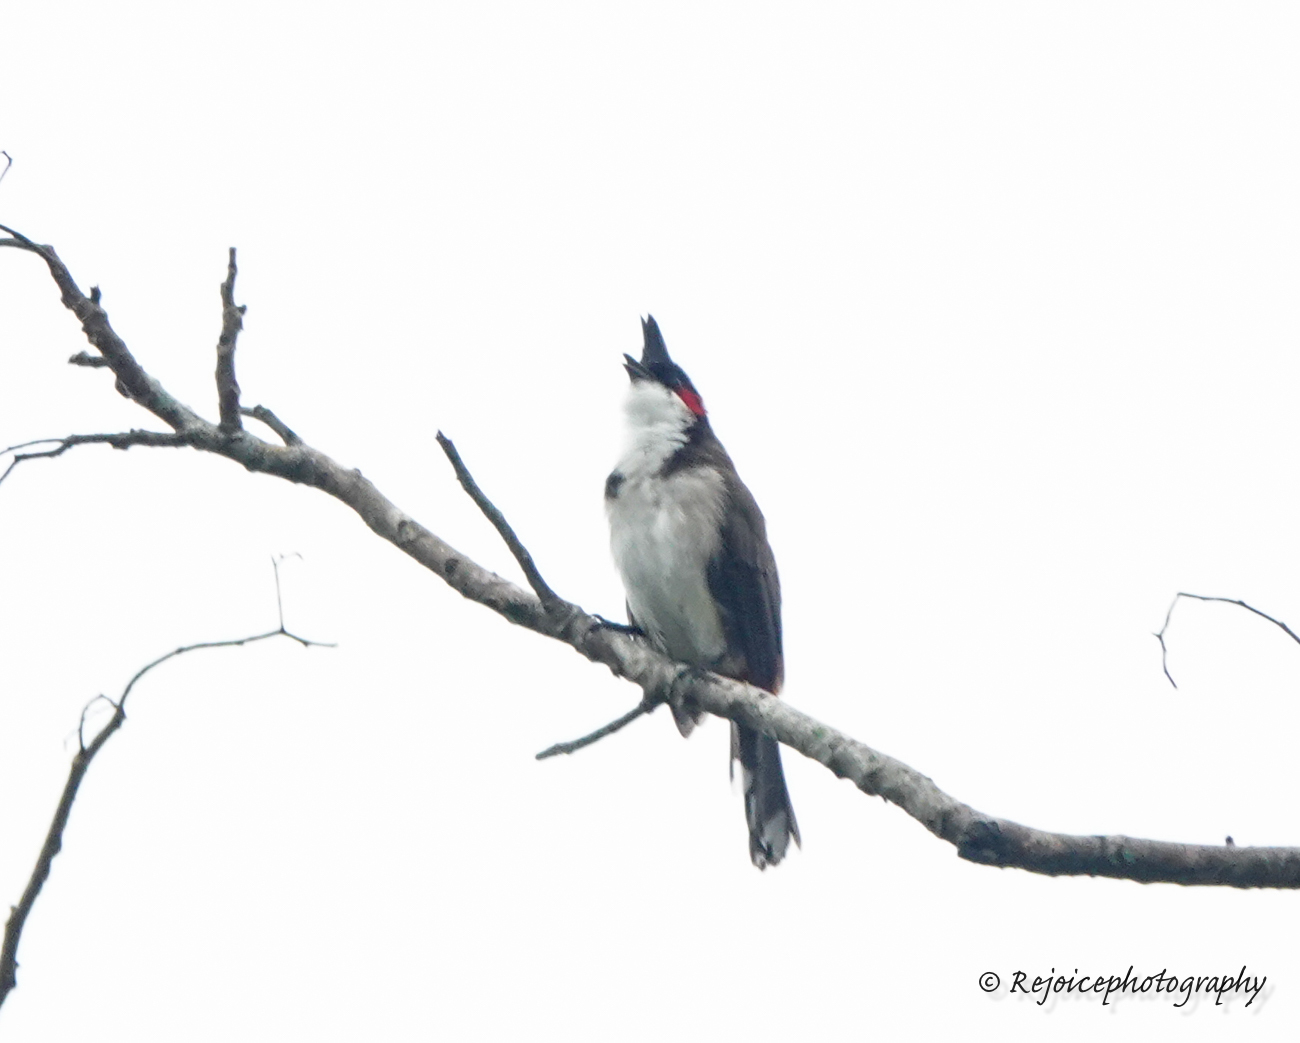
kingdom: Animalia
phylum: Chordata
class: Aves
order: Passeriformes
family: Pycnonotidae
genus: Pycnonotus
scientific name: Pycnonotus jocosus
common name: Red-whiskered bulbul
